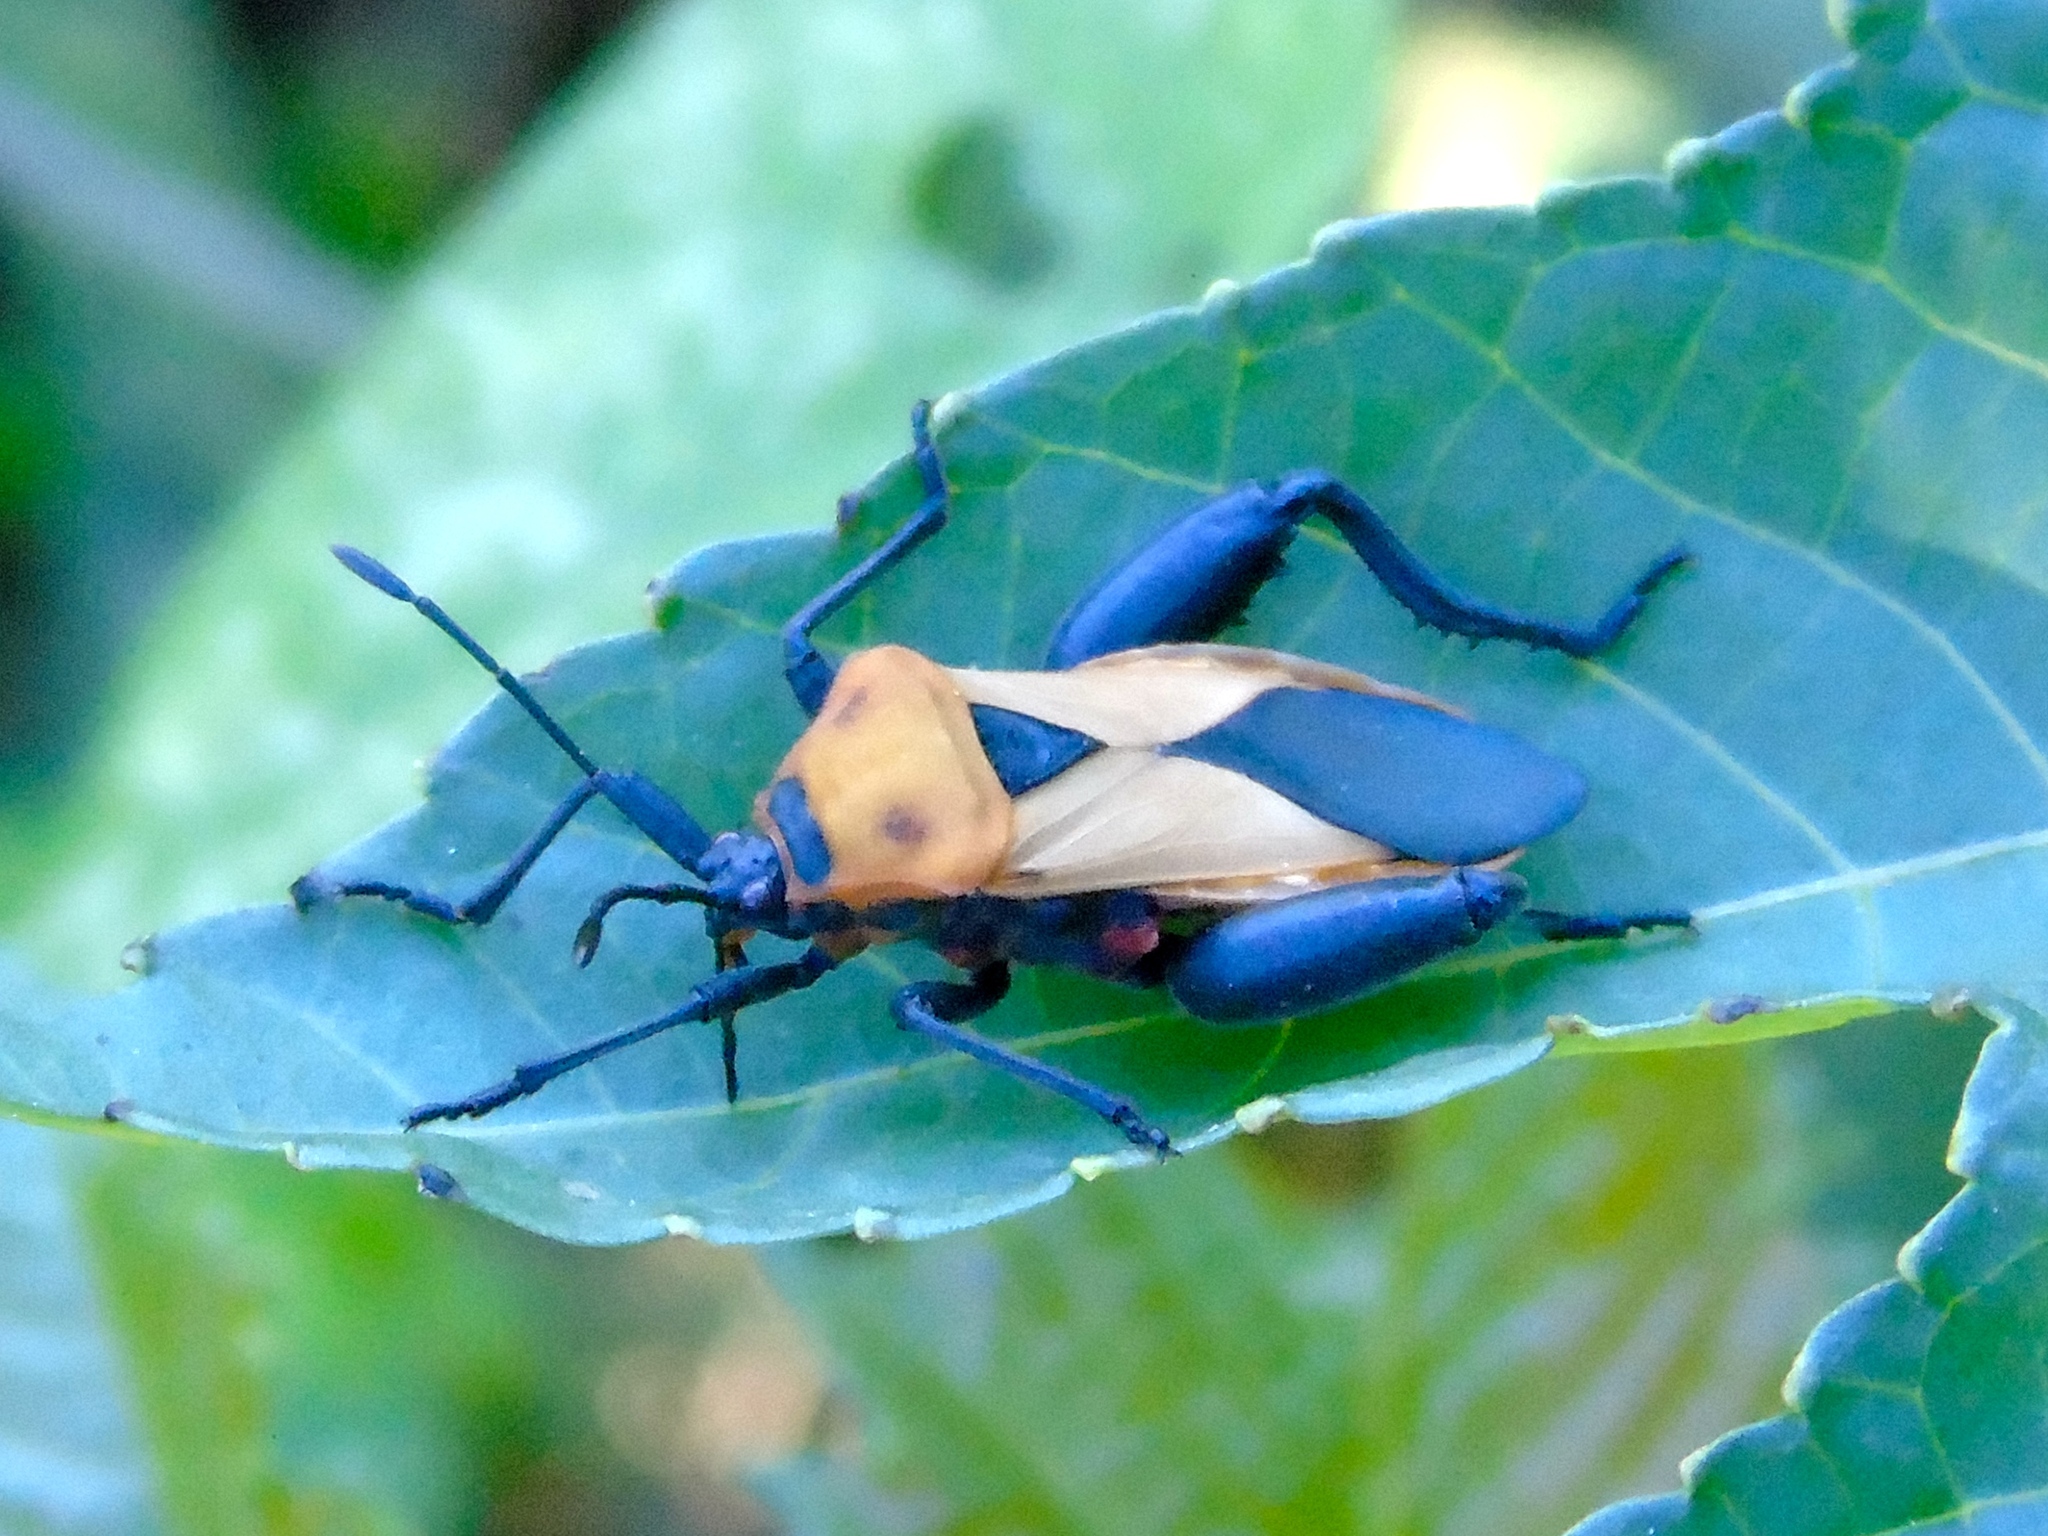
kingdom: Animalia
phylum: Arthropoda
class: Insecta
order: Hemiptera
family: Coreidae
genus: Sagotylus
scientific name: Sagotylus confluens
